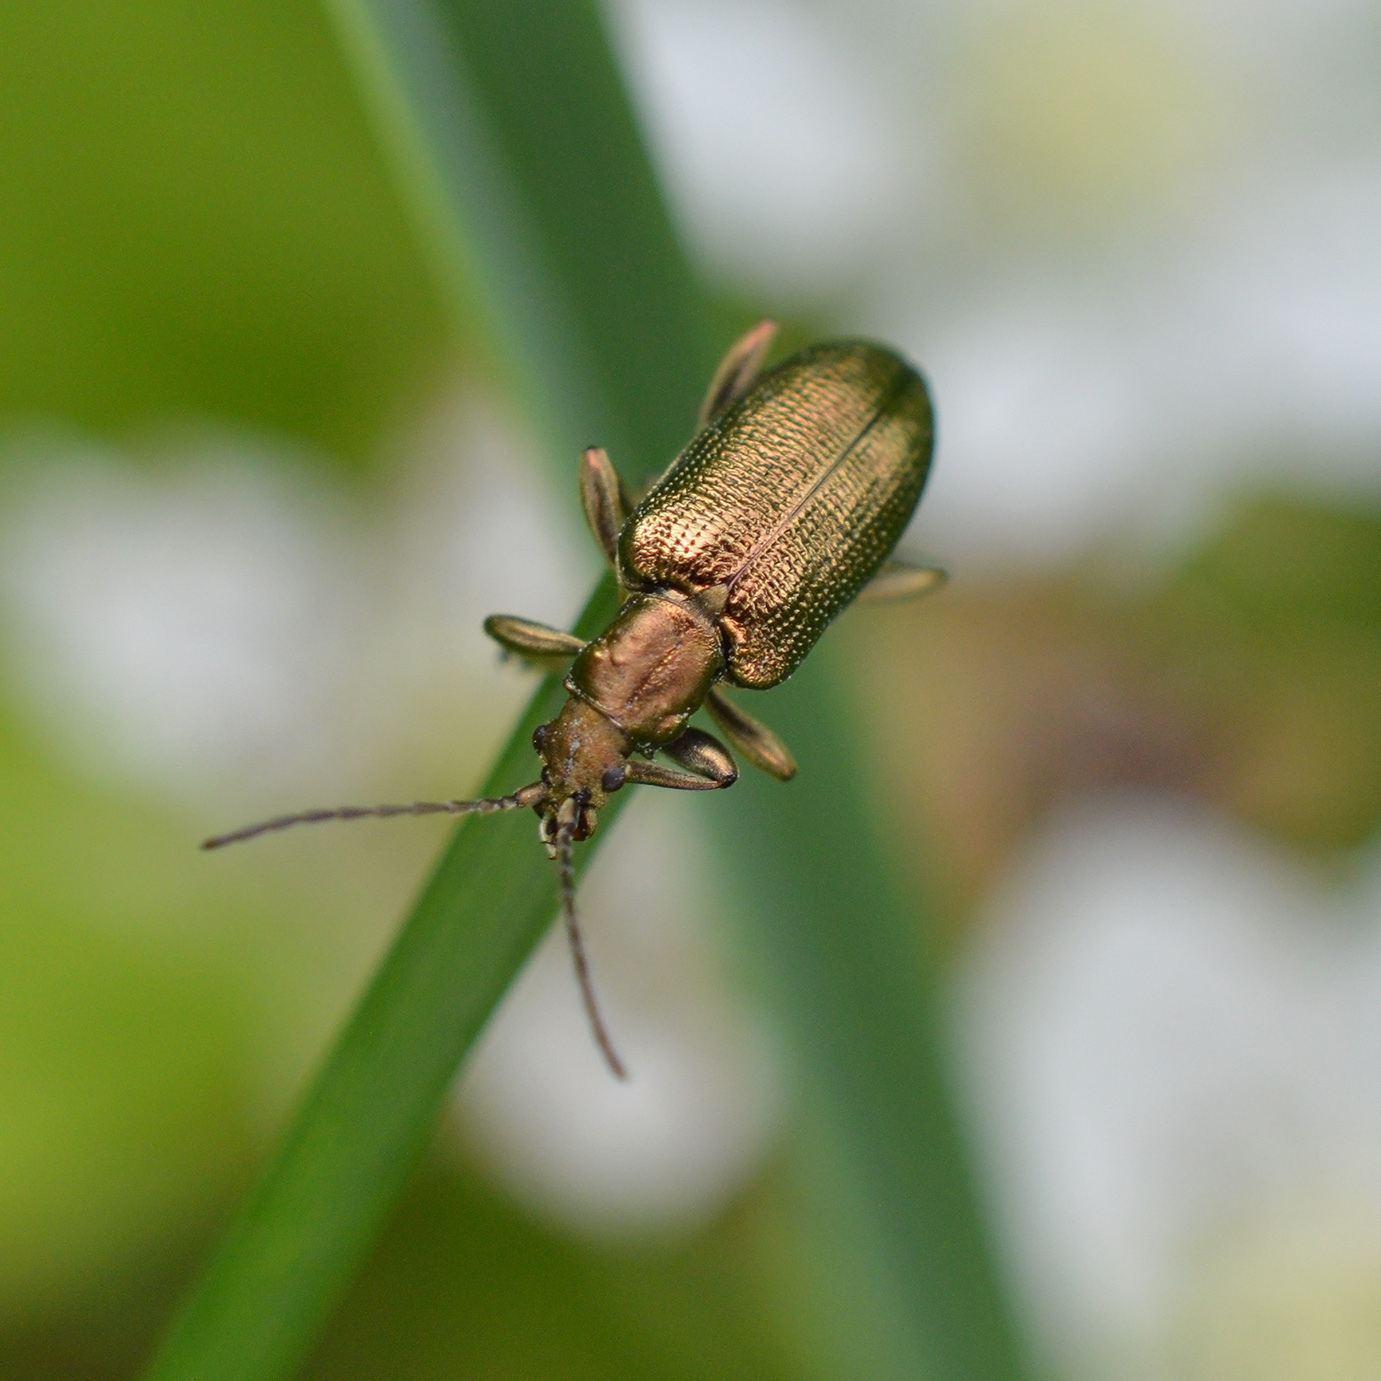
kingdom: Animalia
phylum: Arthropoda
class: Insecta
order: Coleoptera
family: Chrysomelidae
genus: Plateumaris
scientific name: Plateumaris sericea
